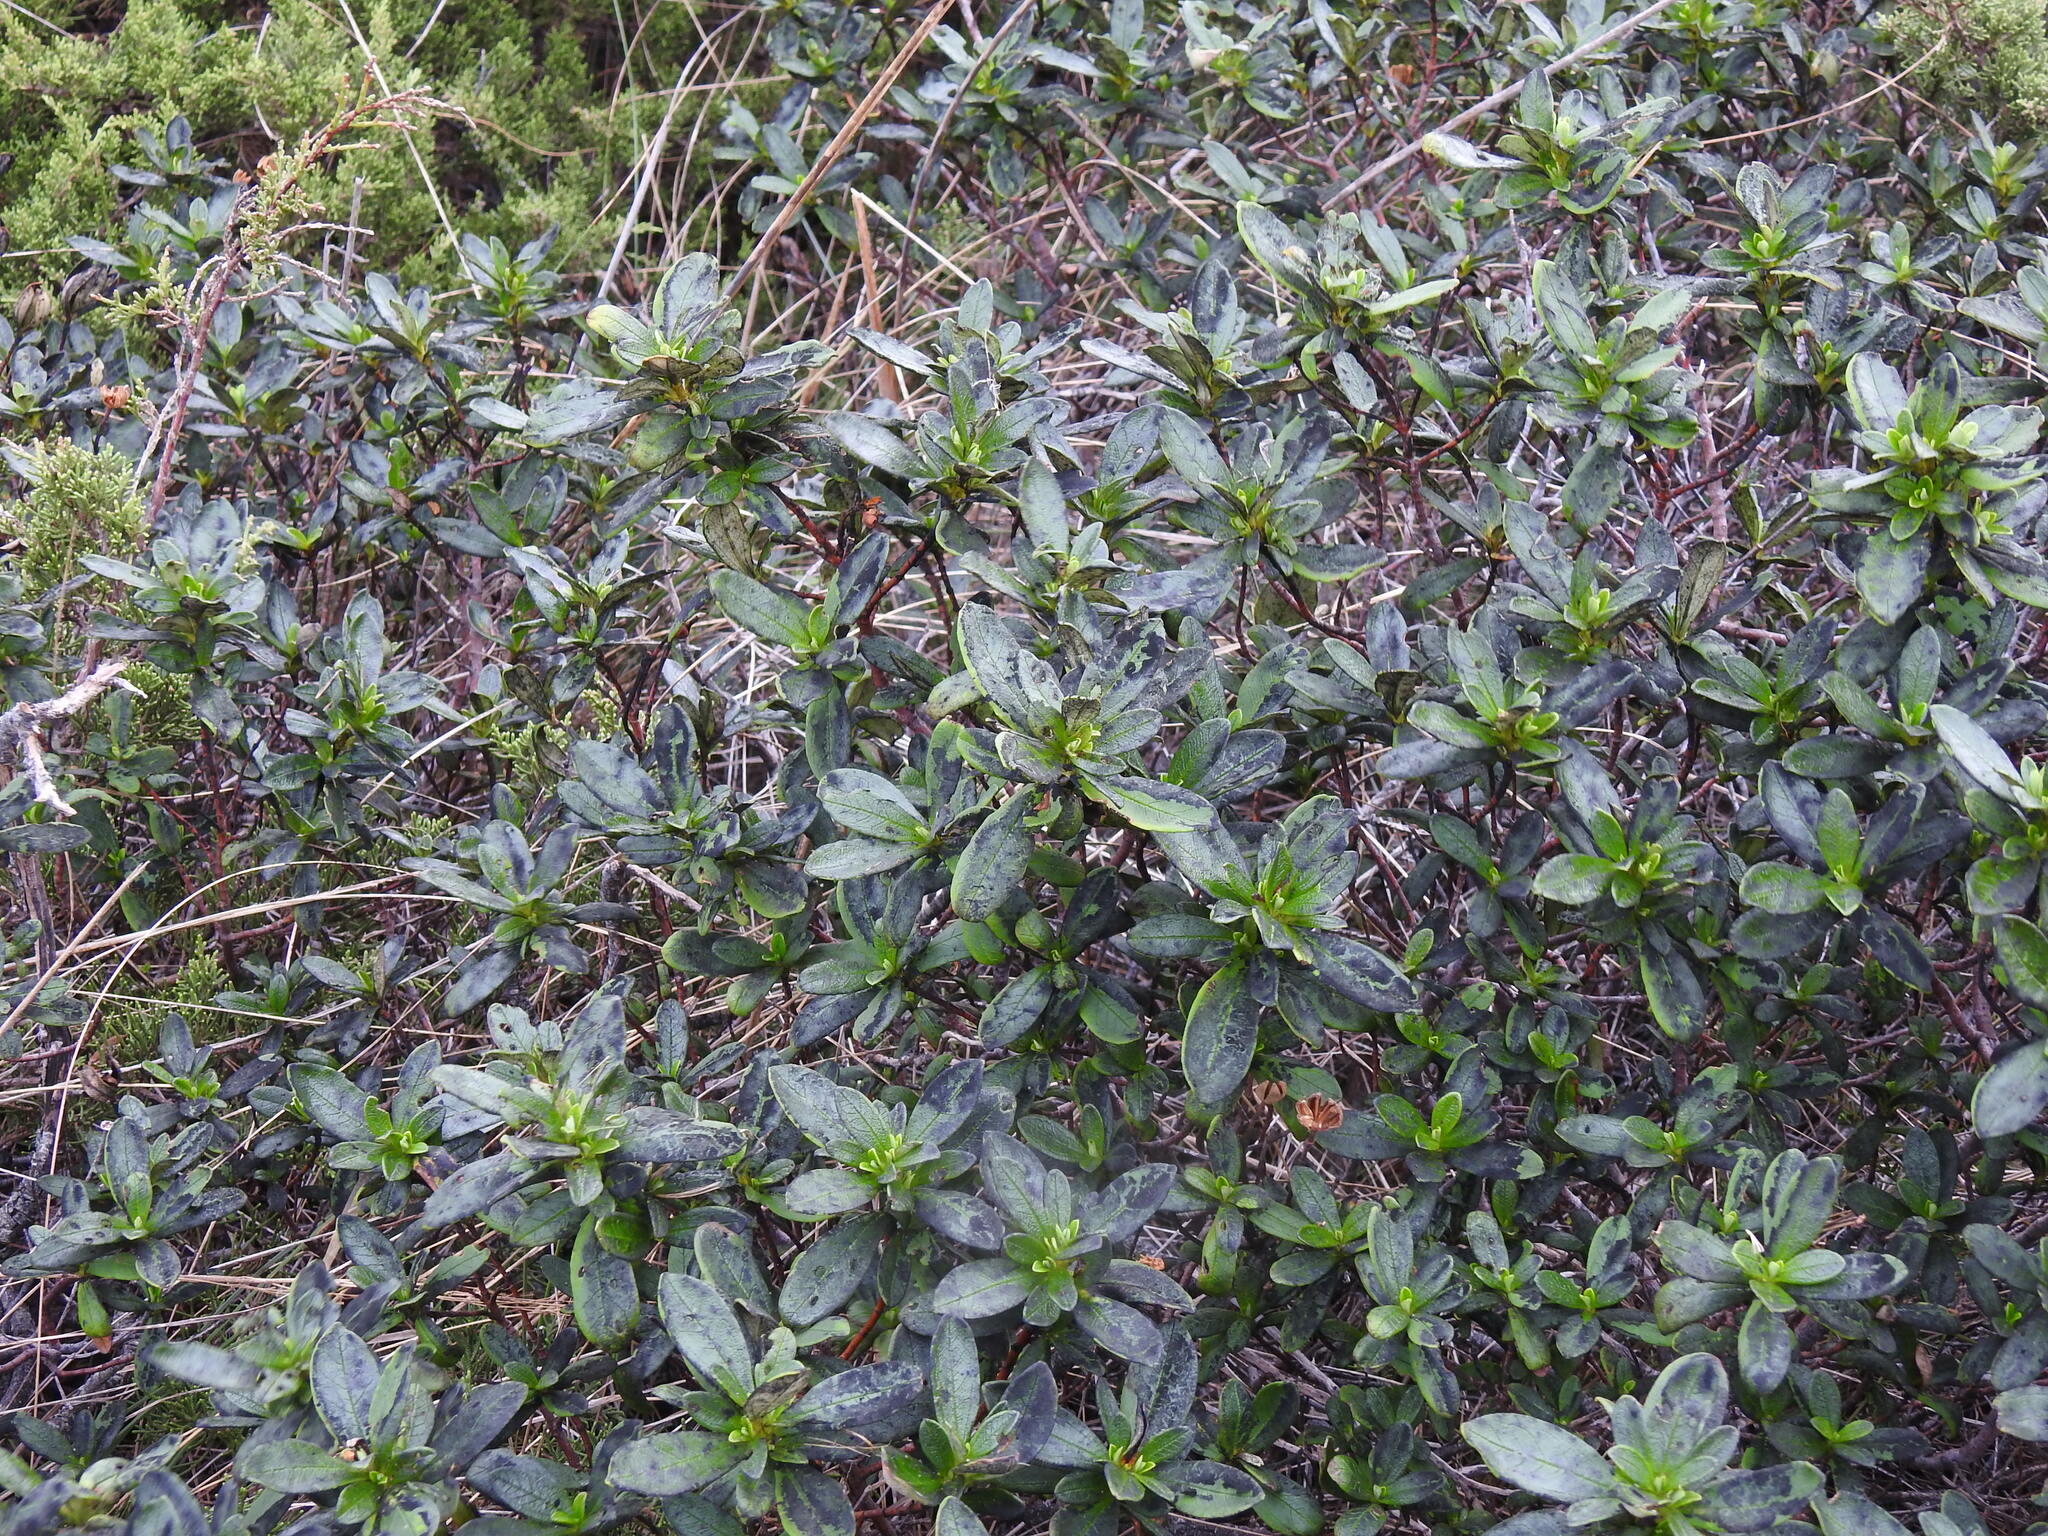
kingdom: Plantae
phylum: Tracheophyta
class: Magnoliopsida
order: Malvales
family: Cistaceae
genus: Cistus
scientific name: Cistus ladanifer
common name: Common gum cistus
